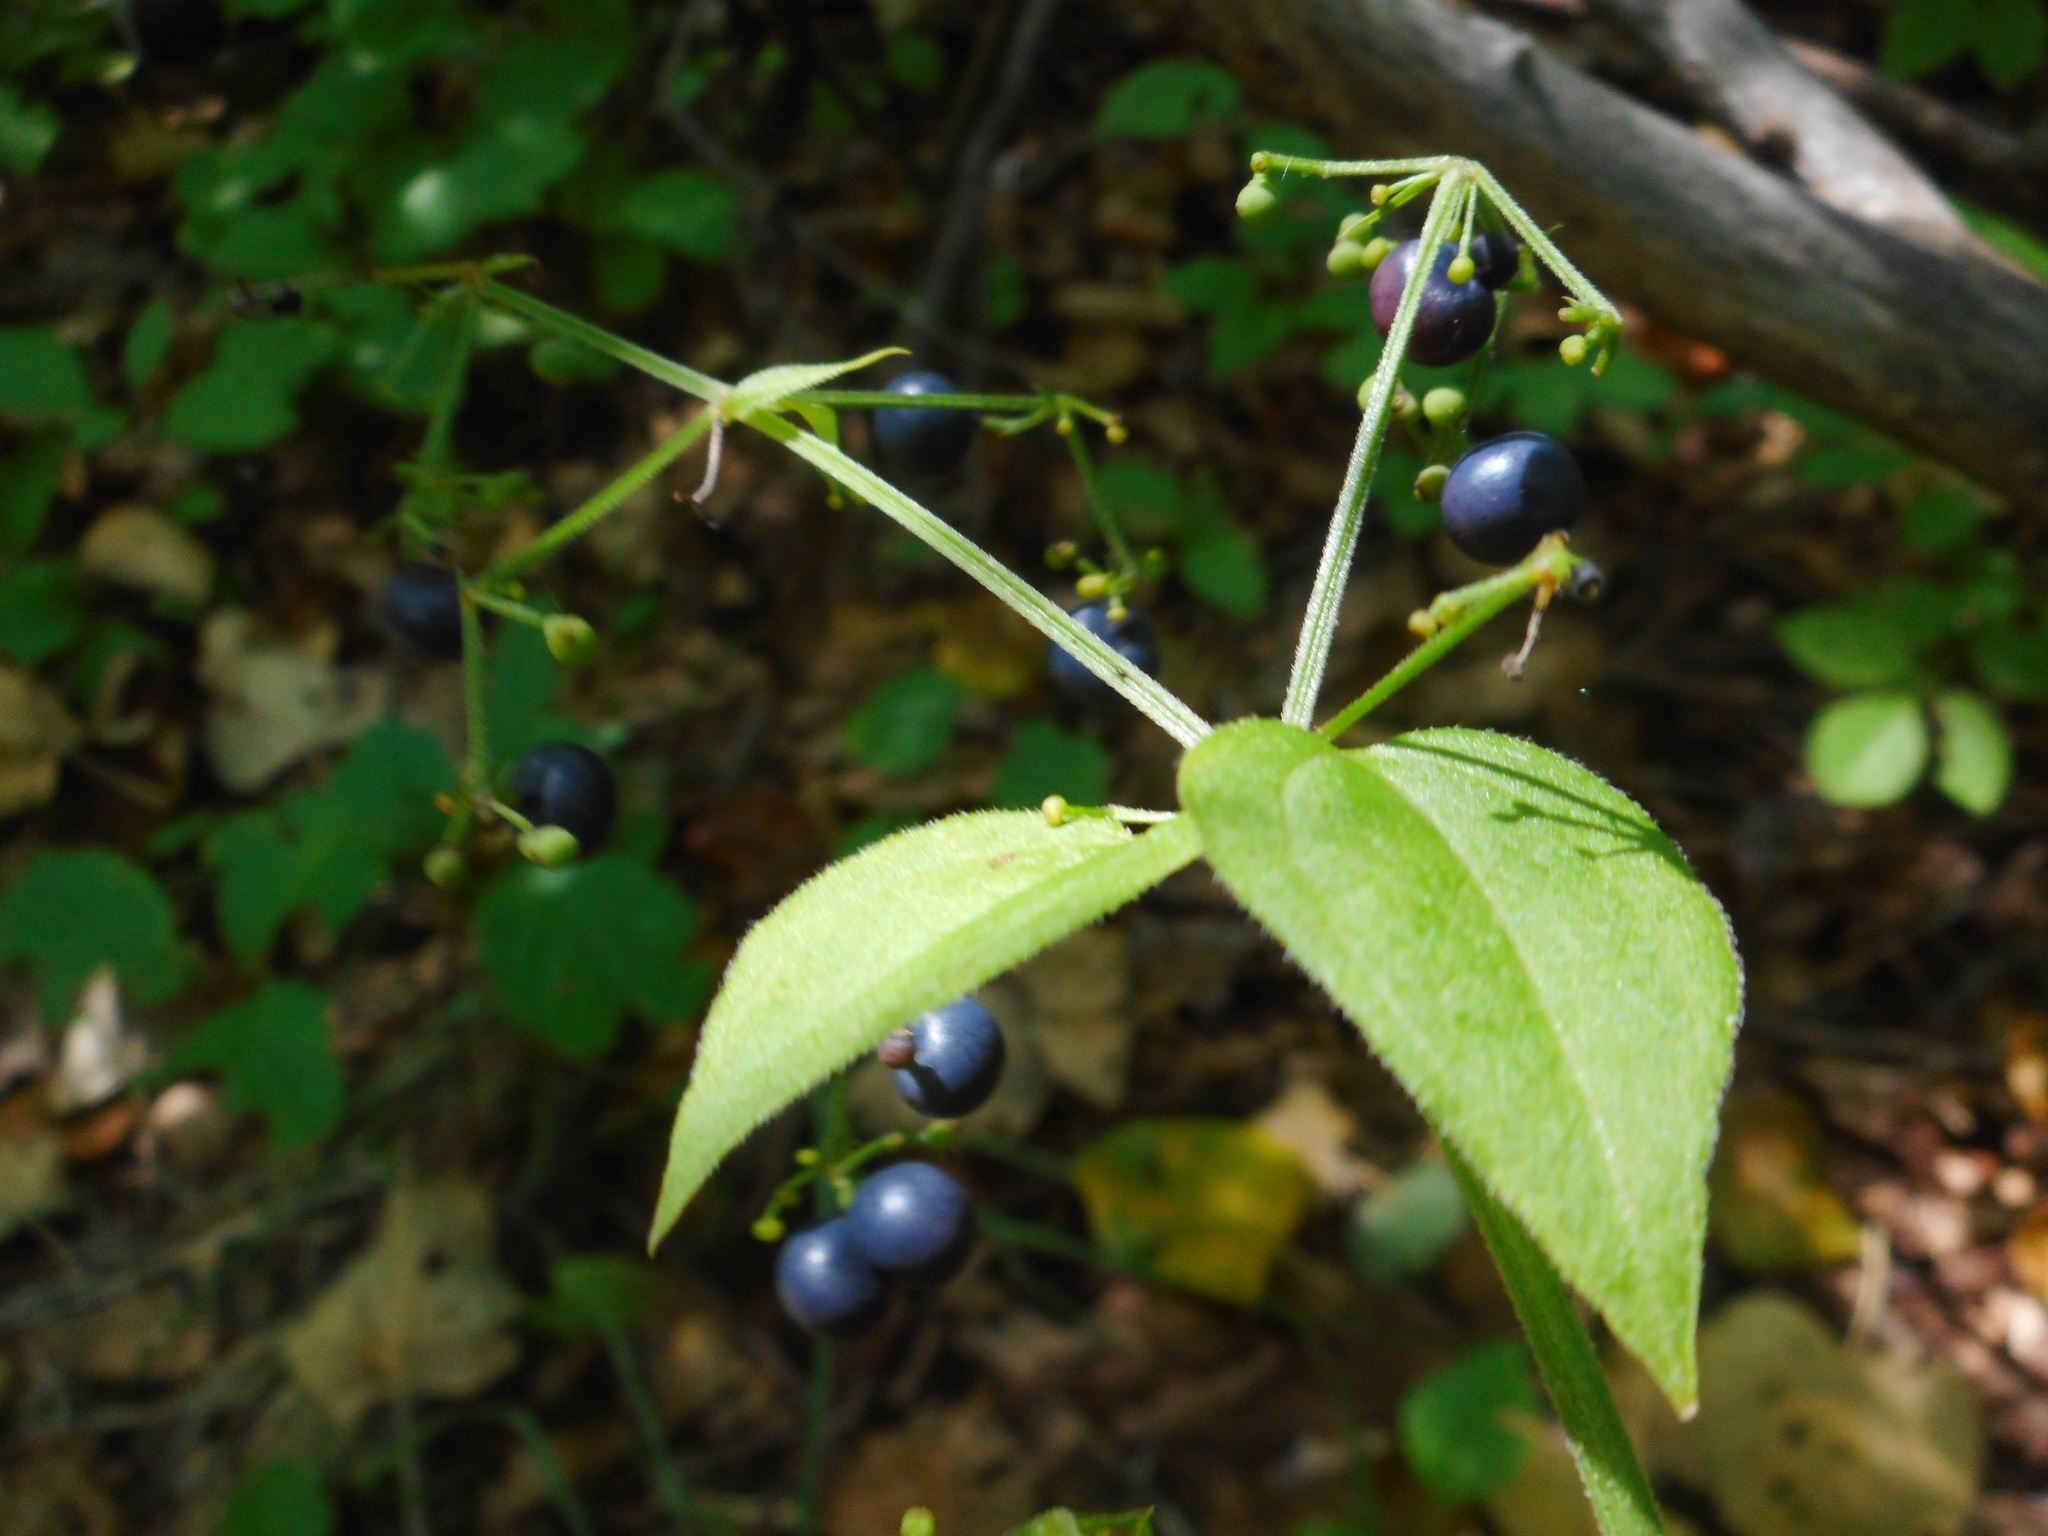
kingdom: Plantae
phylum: Tracheophyta
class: Magnoliopsida
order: Gentianales
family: Rubiaceae
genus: Rubia
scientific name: Rubia chinensis
